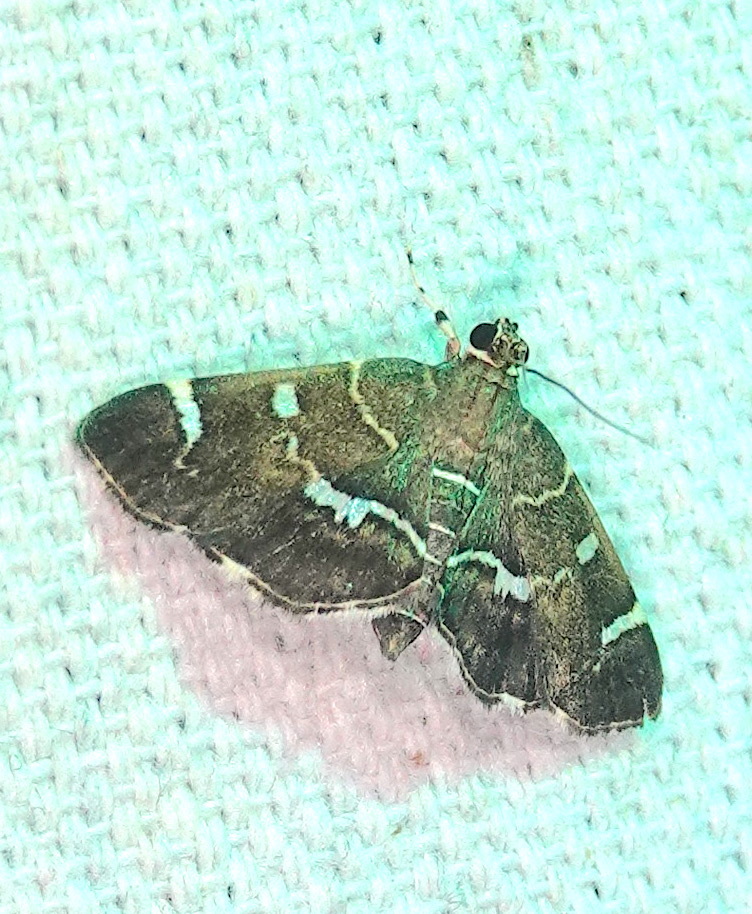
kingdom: Animalia
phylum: Arthropoda
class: Insecta
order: Lepidoptera
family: Crambidae
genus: Hymenia
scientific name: Hymenia perspectalis
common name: Spotted beet webworm
